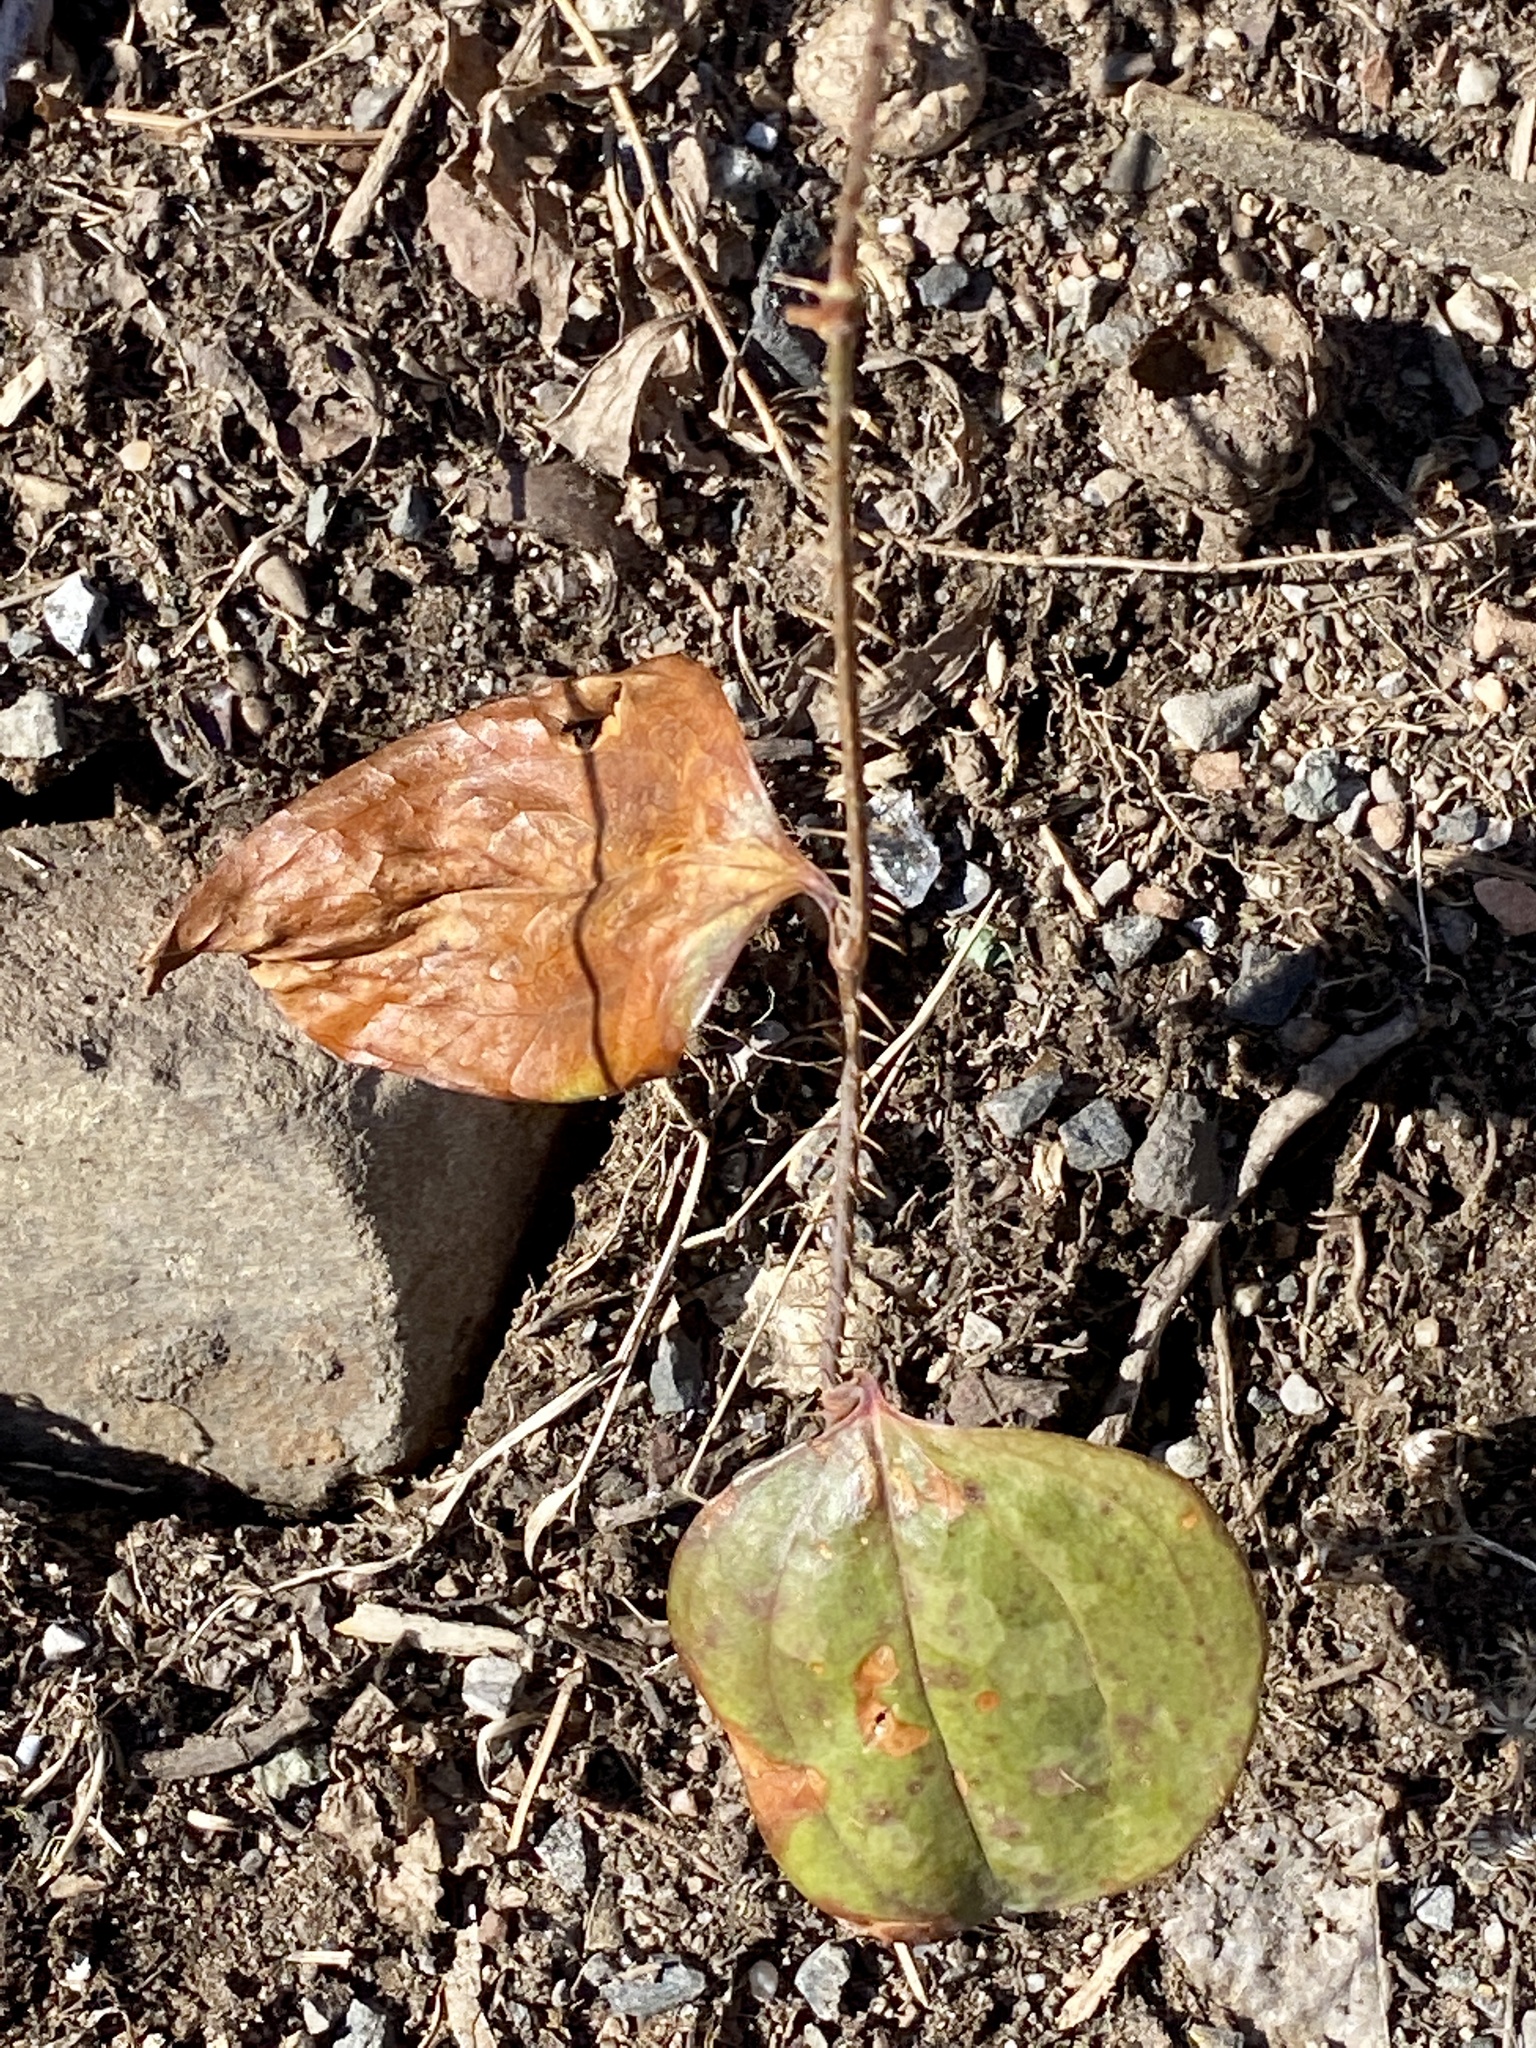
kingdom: Plantae
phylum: Tracheophyta
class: Liliopsida
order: Liliales
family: Smilacaceae
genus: Smilax
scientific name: Smilax glauca
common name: Cat greenbrier
